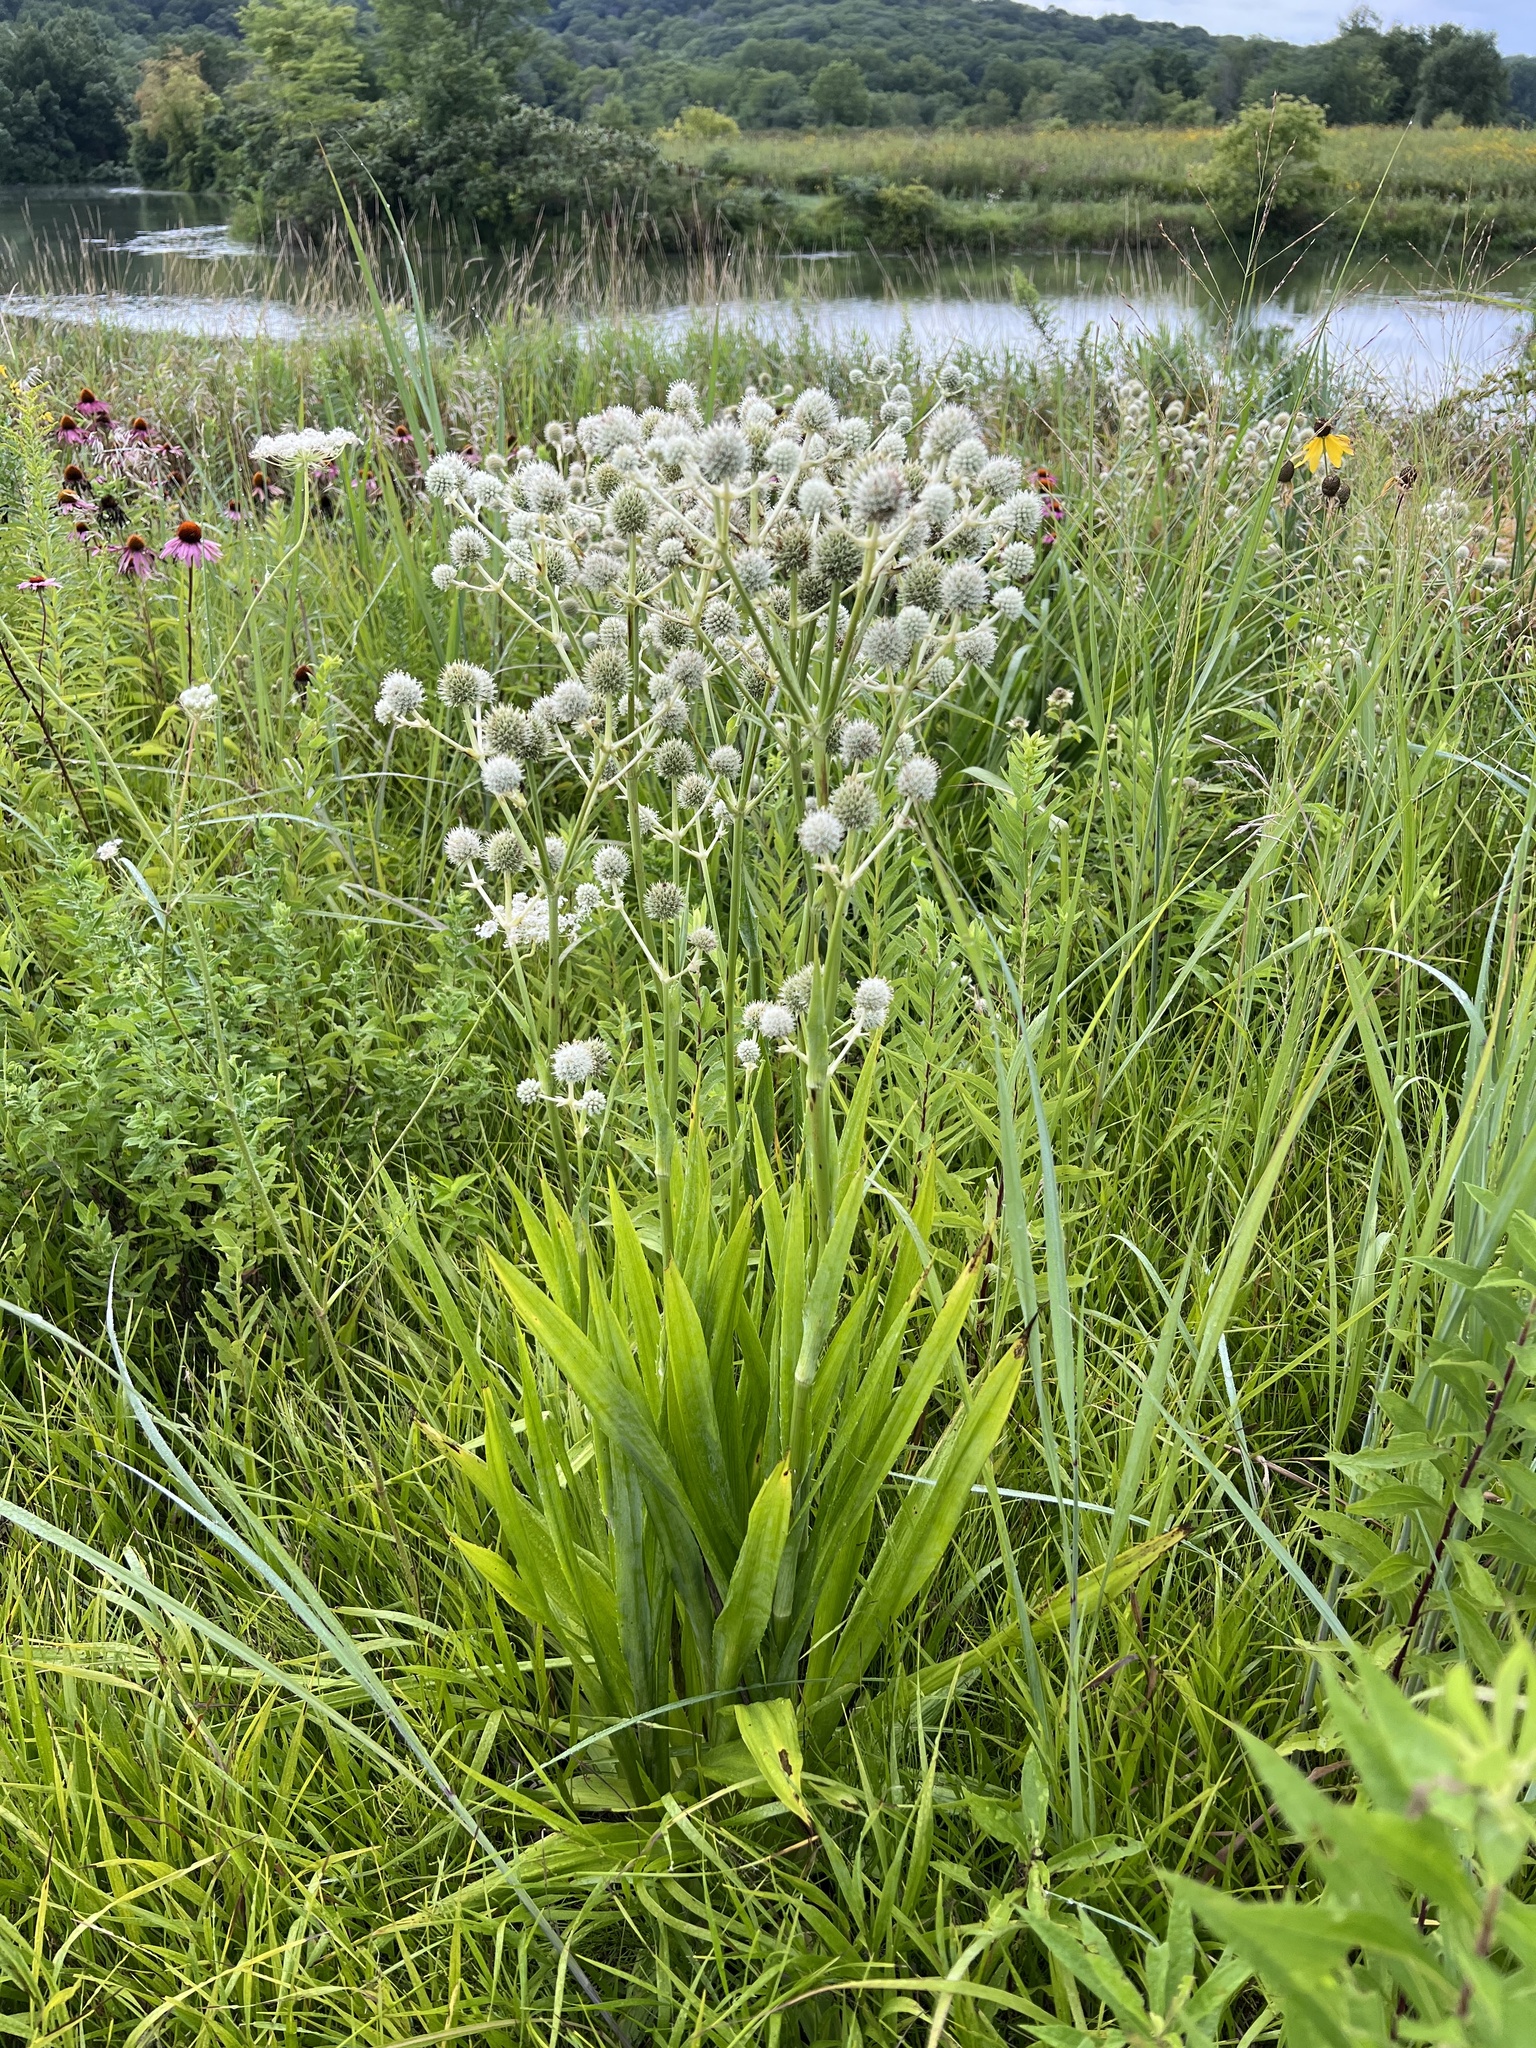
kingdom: Plantae
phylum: Tracheophyta
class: Magnoliopsida
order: Apiales
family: Apiaceae
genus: Eryngium
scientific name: Eryngium yuccifolium
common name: Button eryngo
